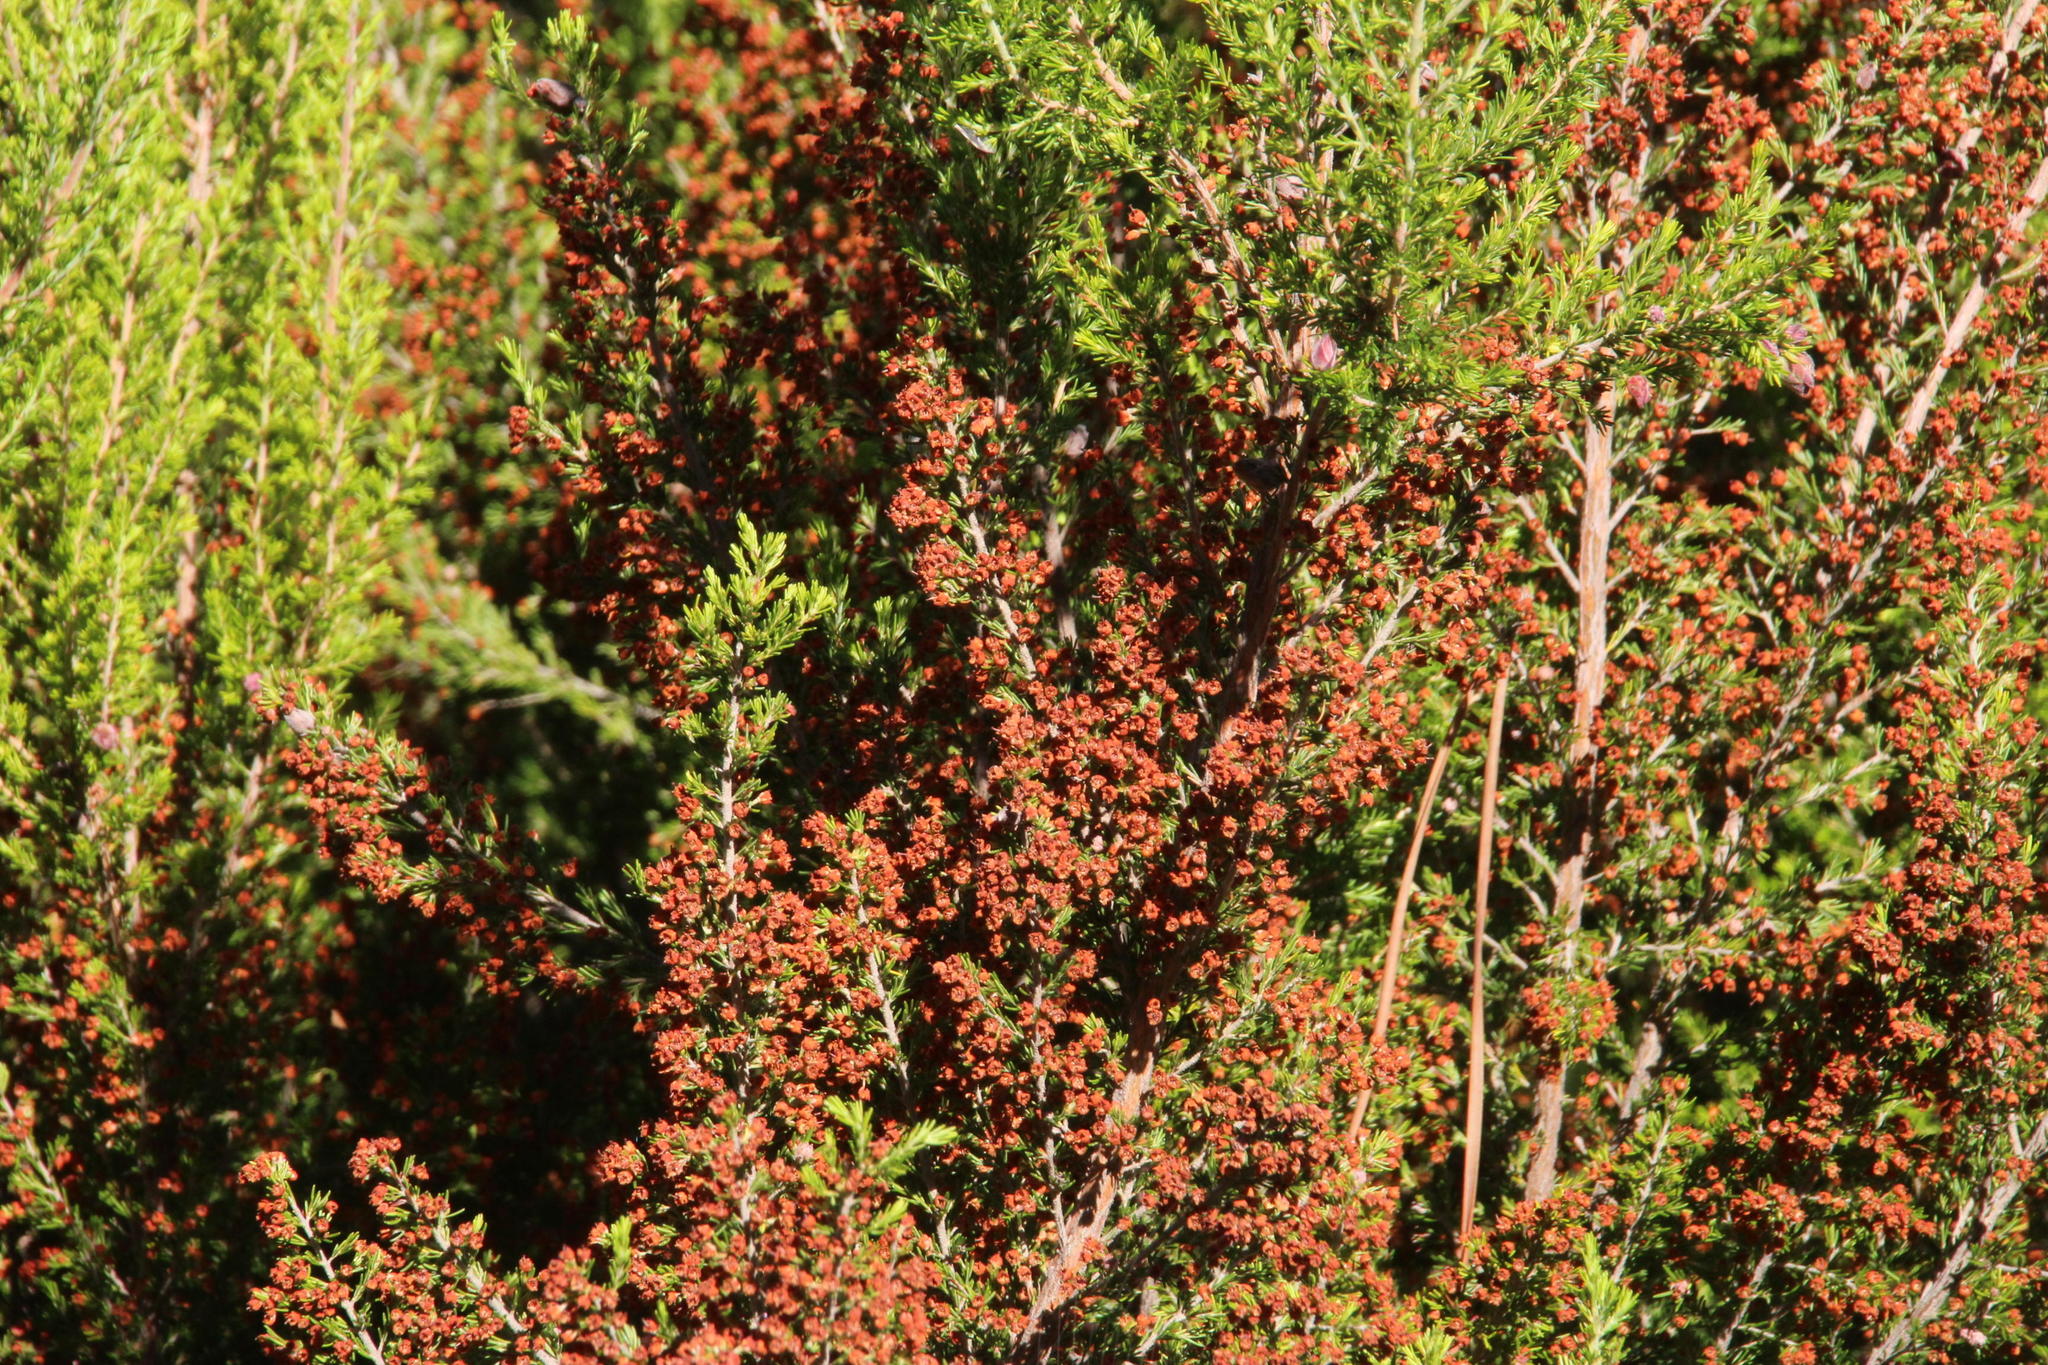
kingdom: Plantae
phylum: Tracheophyta
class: Magnoliopsida
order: Ericales
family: Ericaceae
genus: Erica
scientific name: Erica arborea
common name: Tree heath
